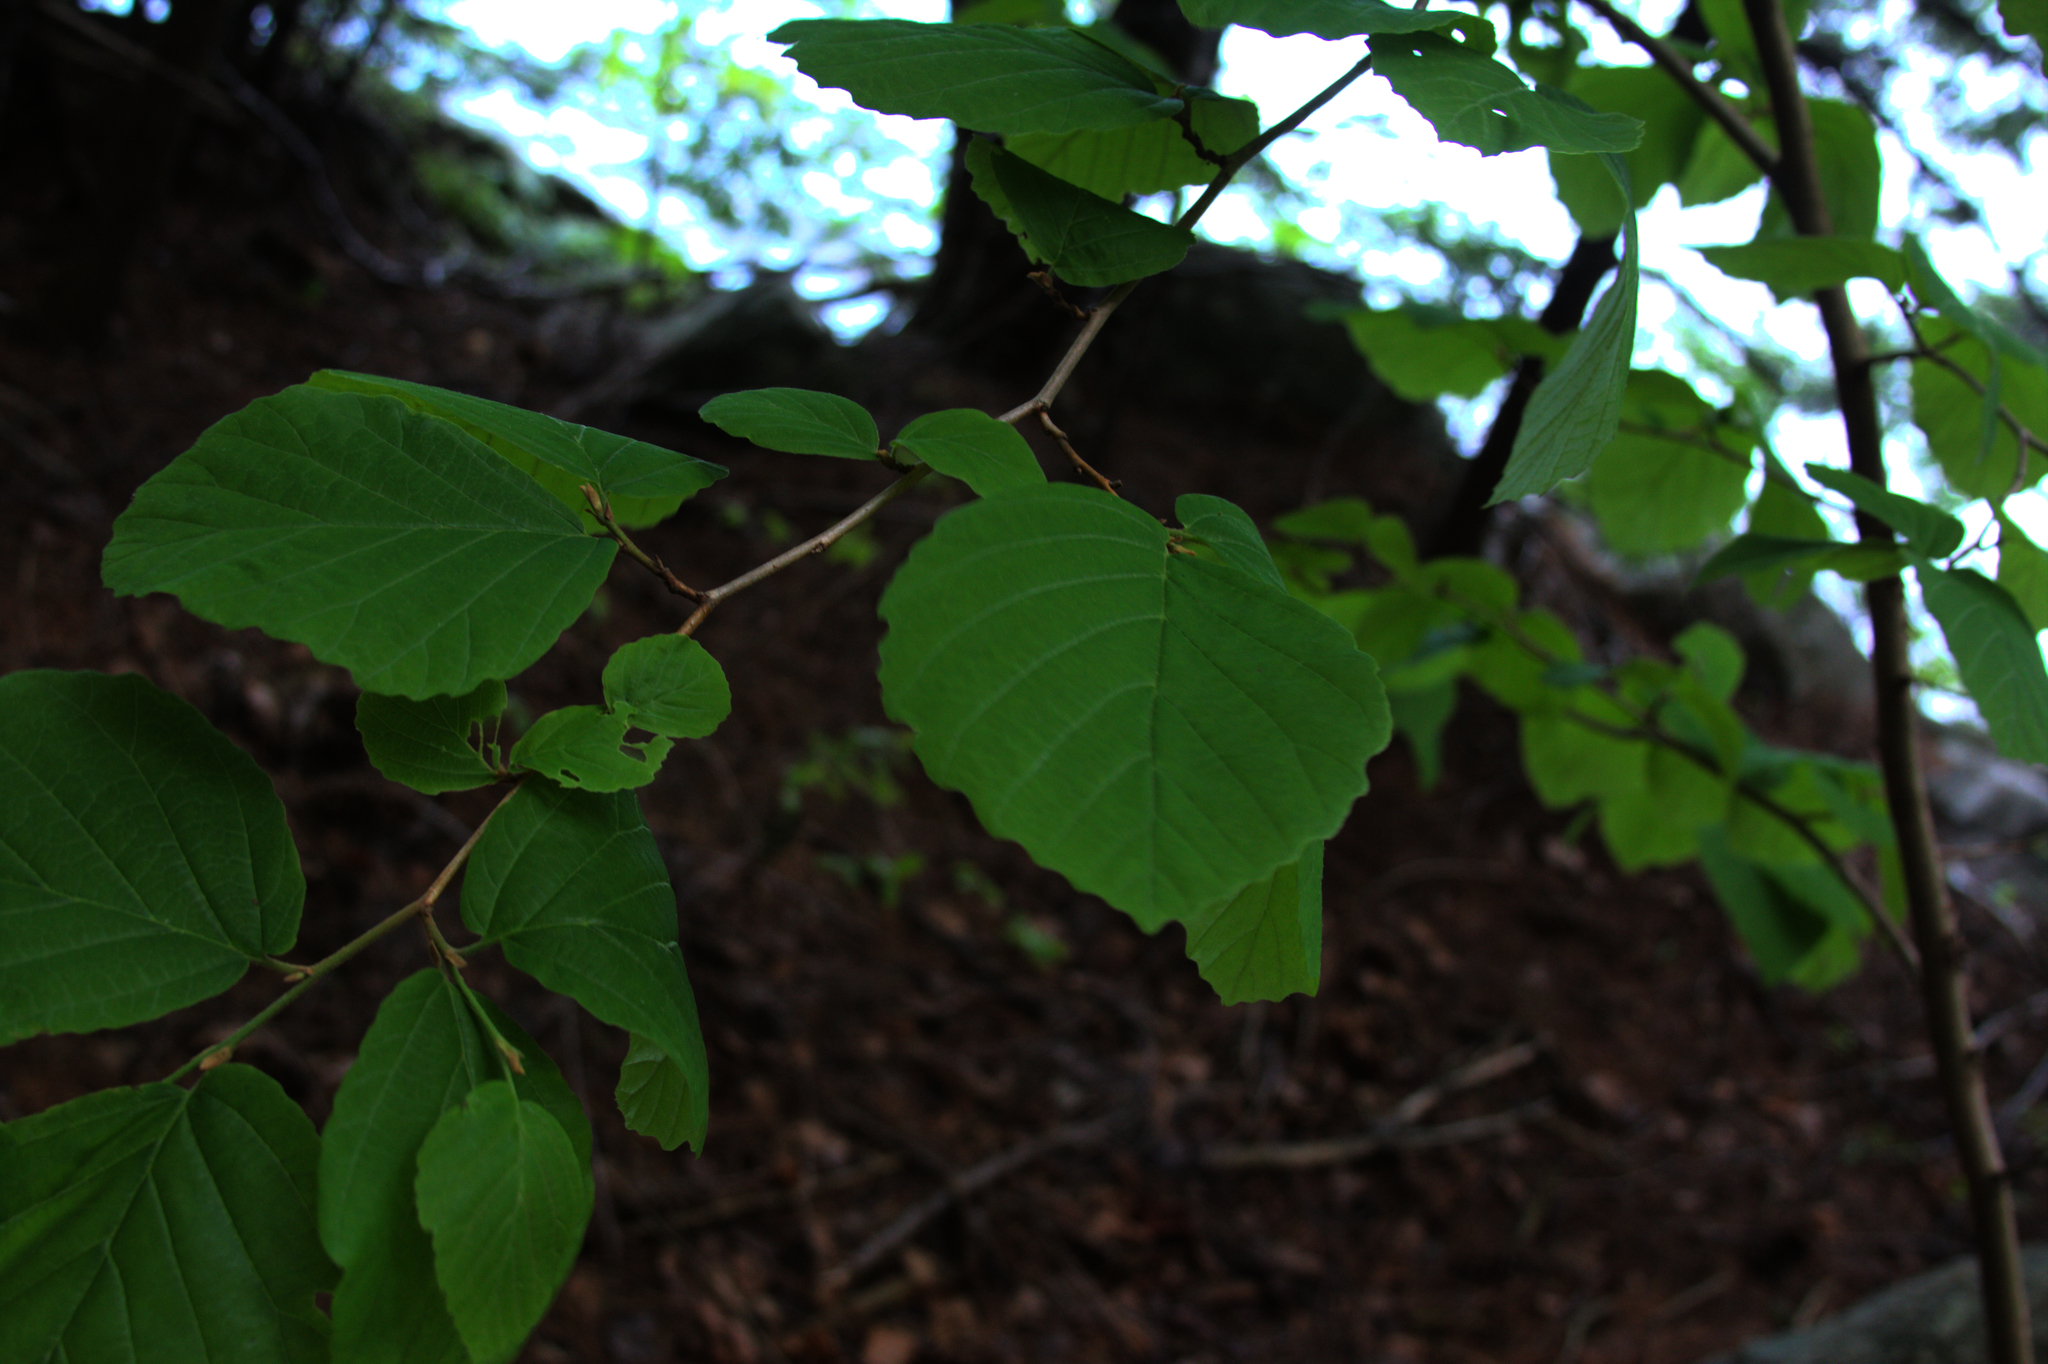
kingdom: Plantae
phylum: Tracheophyta
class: Magnoliopsida
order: Saxifragales
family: Hamamelidaceae
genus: Hamamelis
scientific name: Hamamelis virginiana
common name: Witch-hazel
